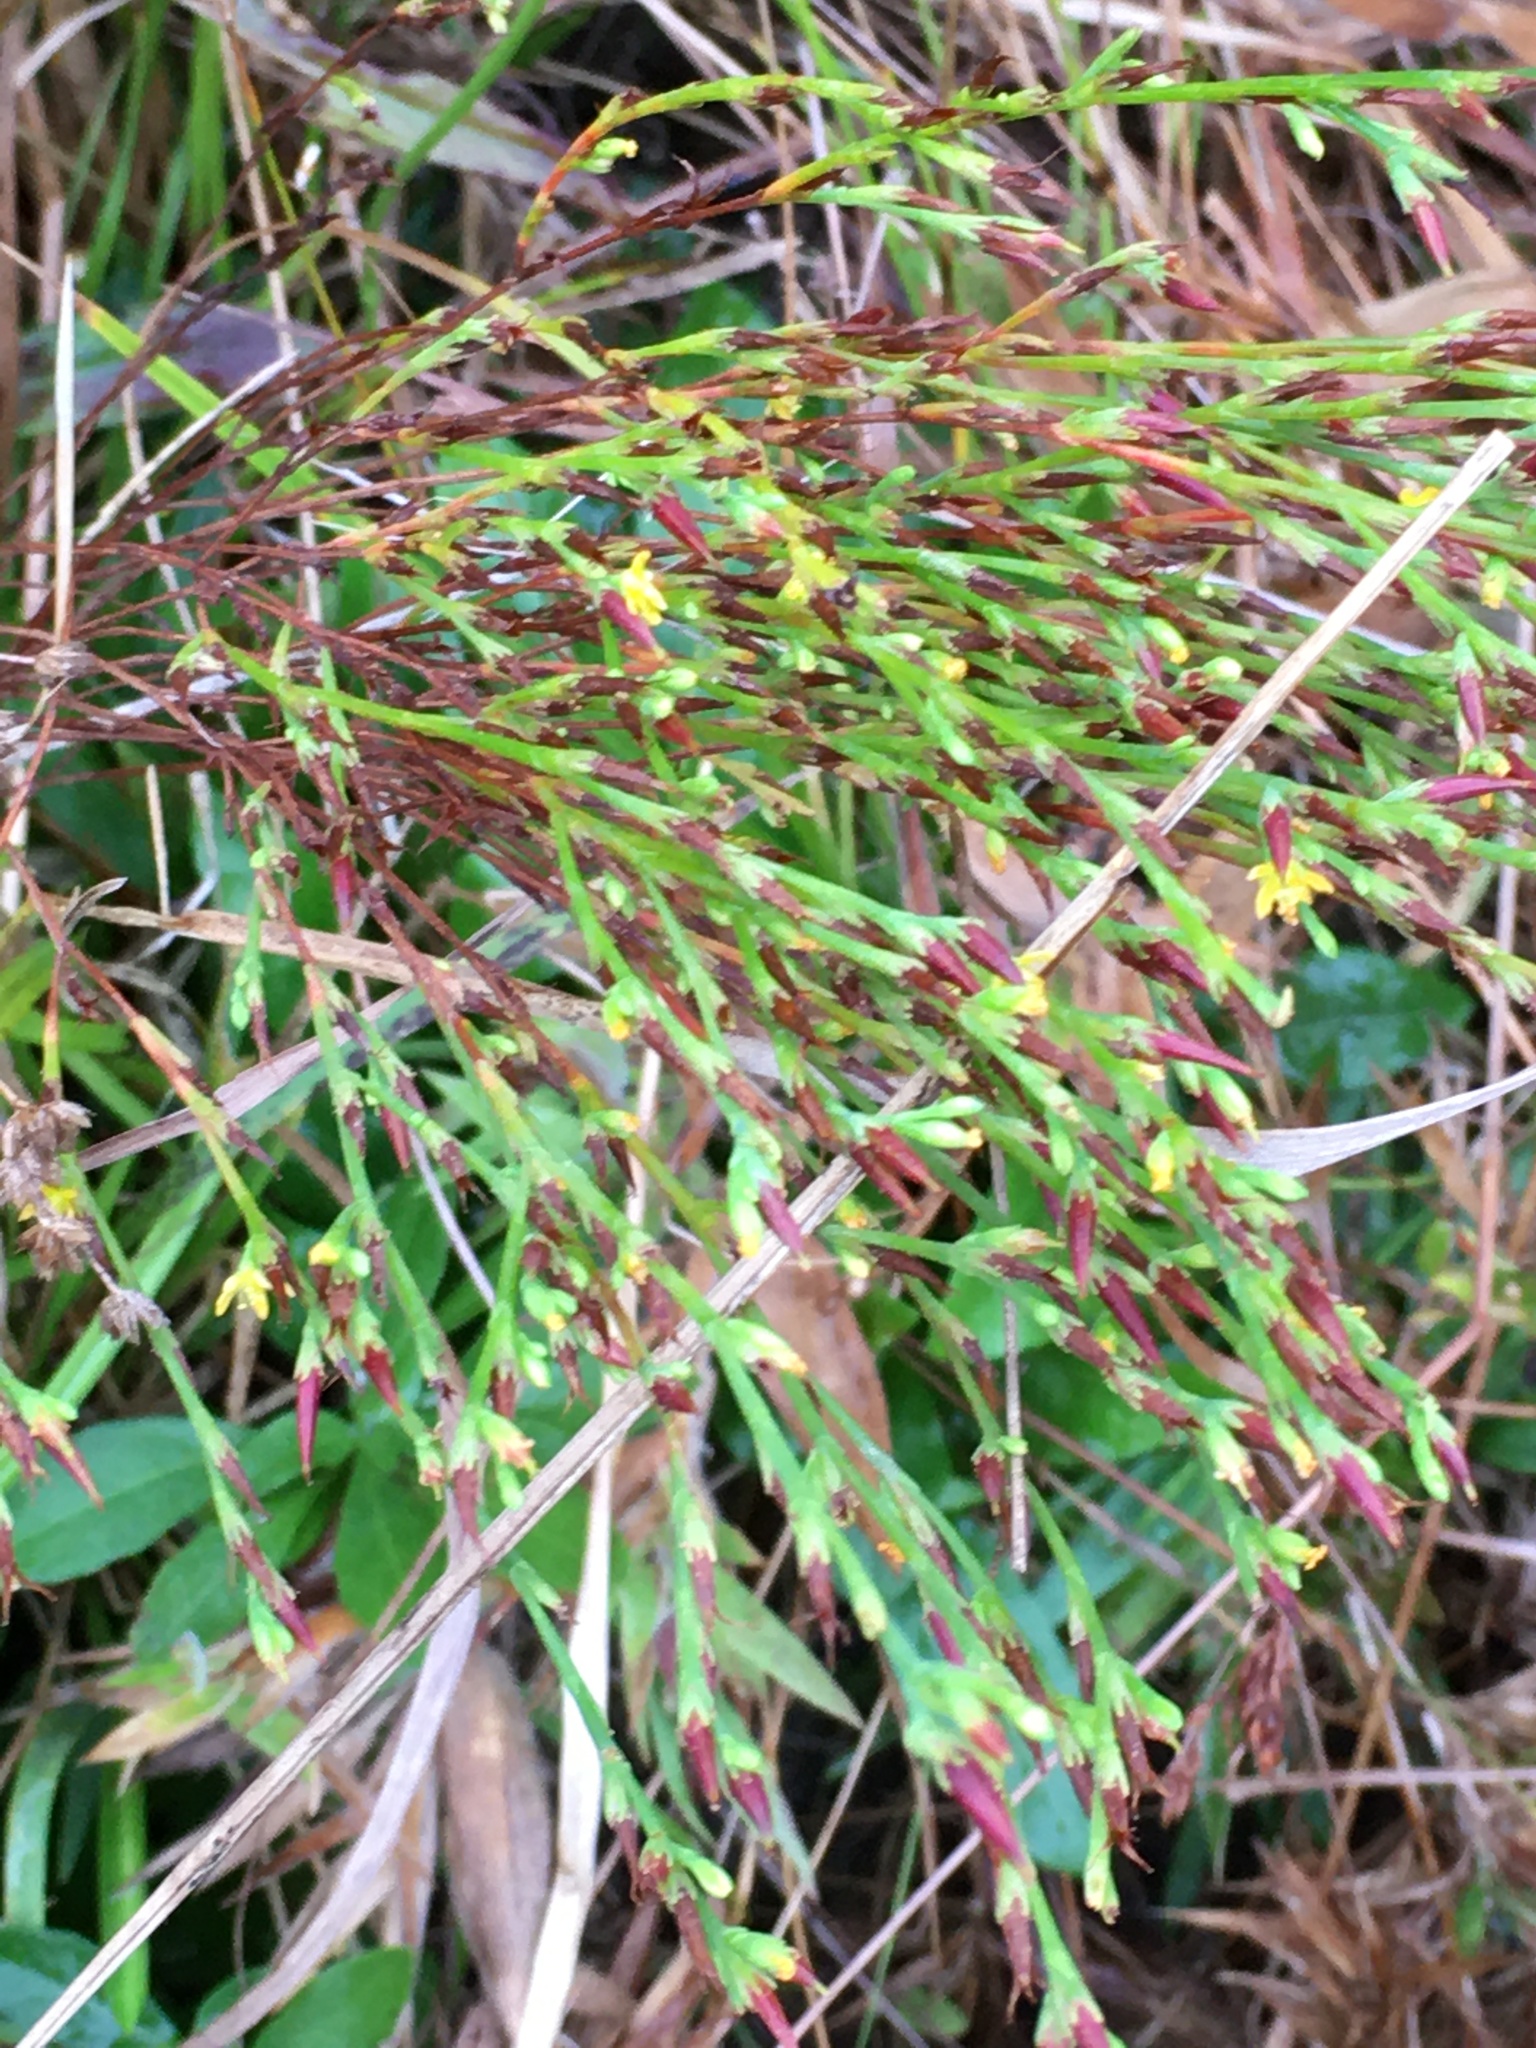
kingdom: Plantae
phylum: Tracheophyta
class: Magnoliopsida
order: Malpighiales
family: Hypericaceae
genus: Hypericum
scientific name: Hypericum gentianoides
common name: Gentian-leaved st. john's-wort
